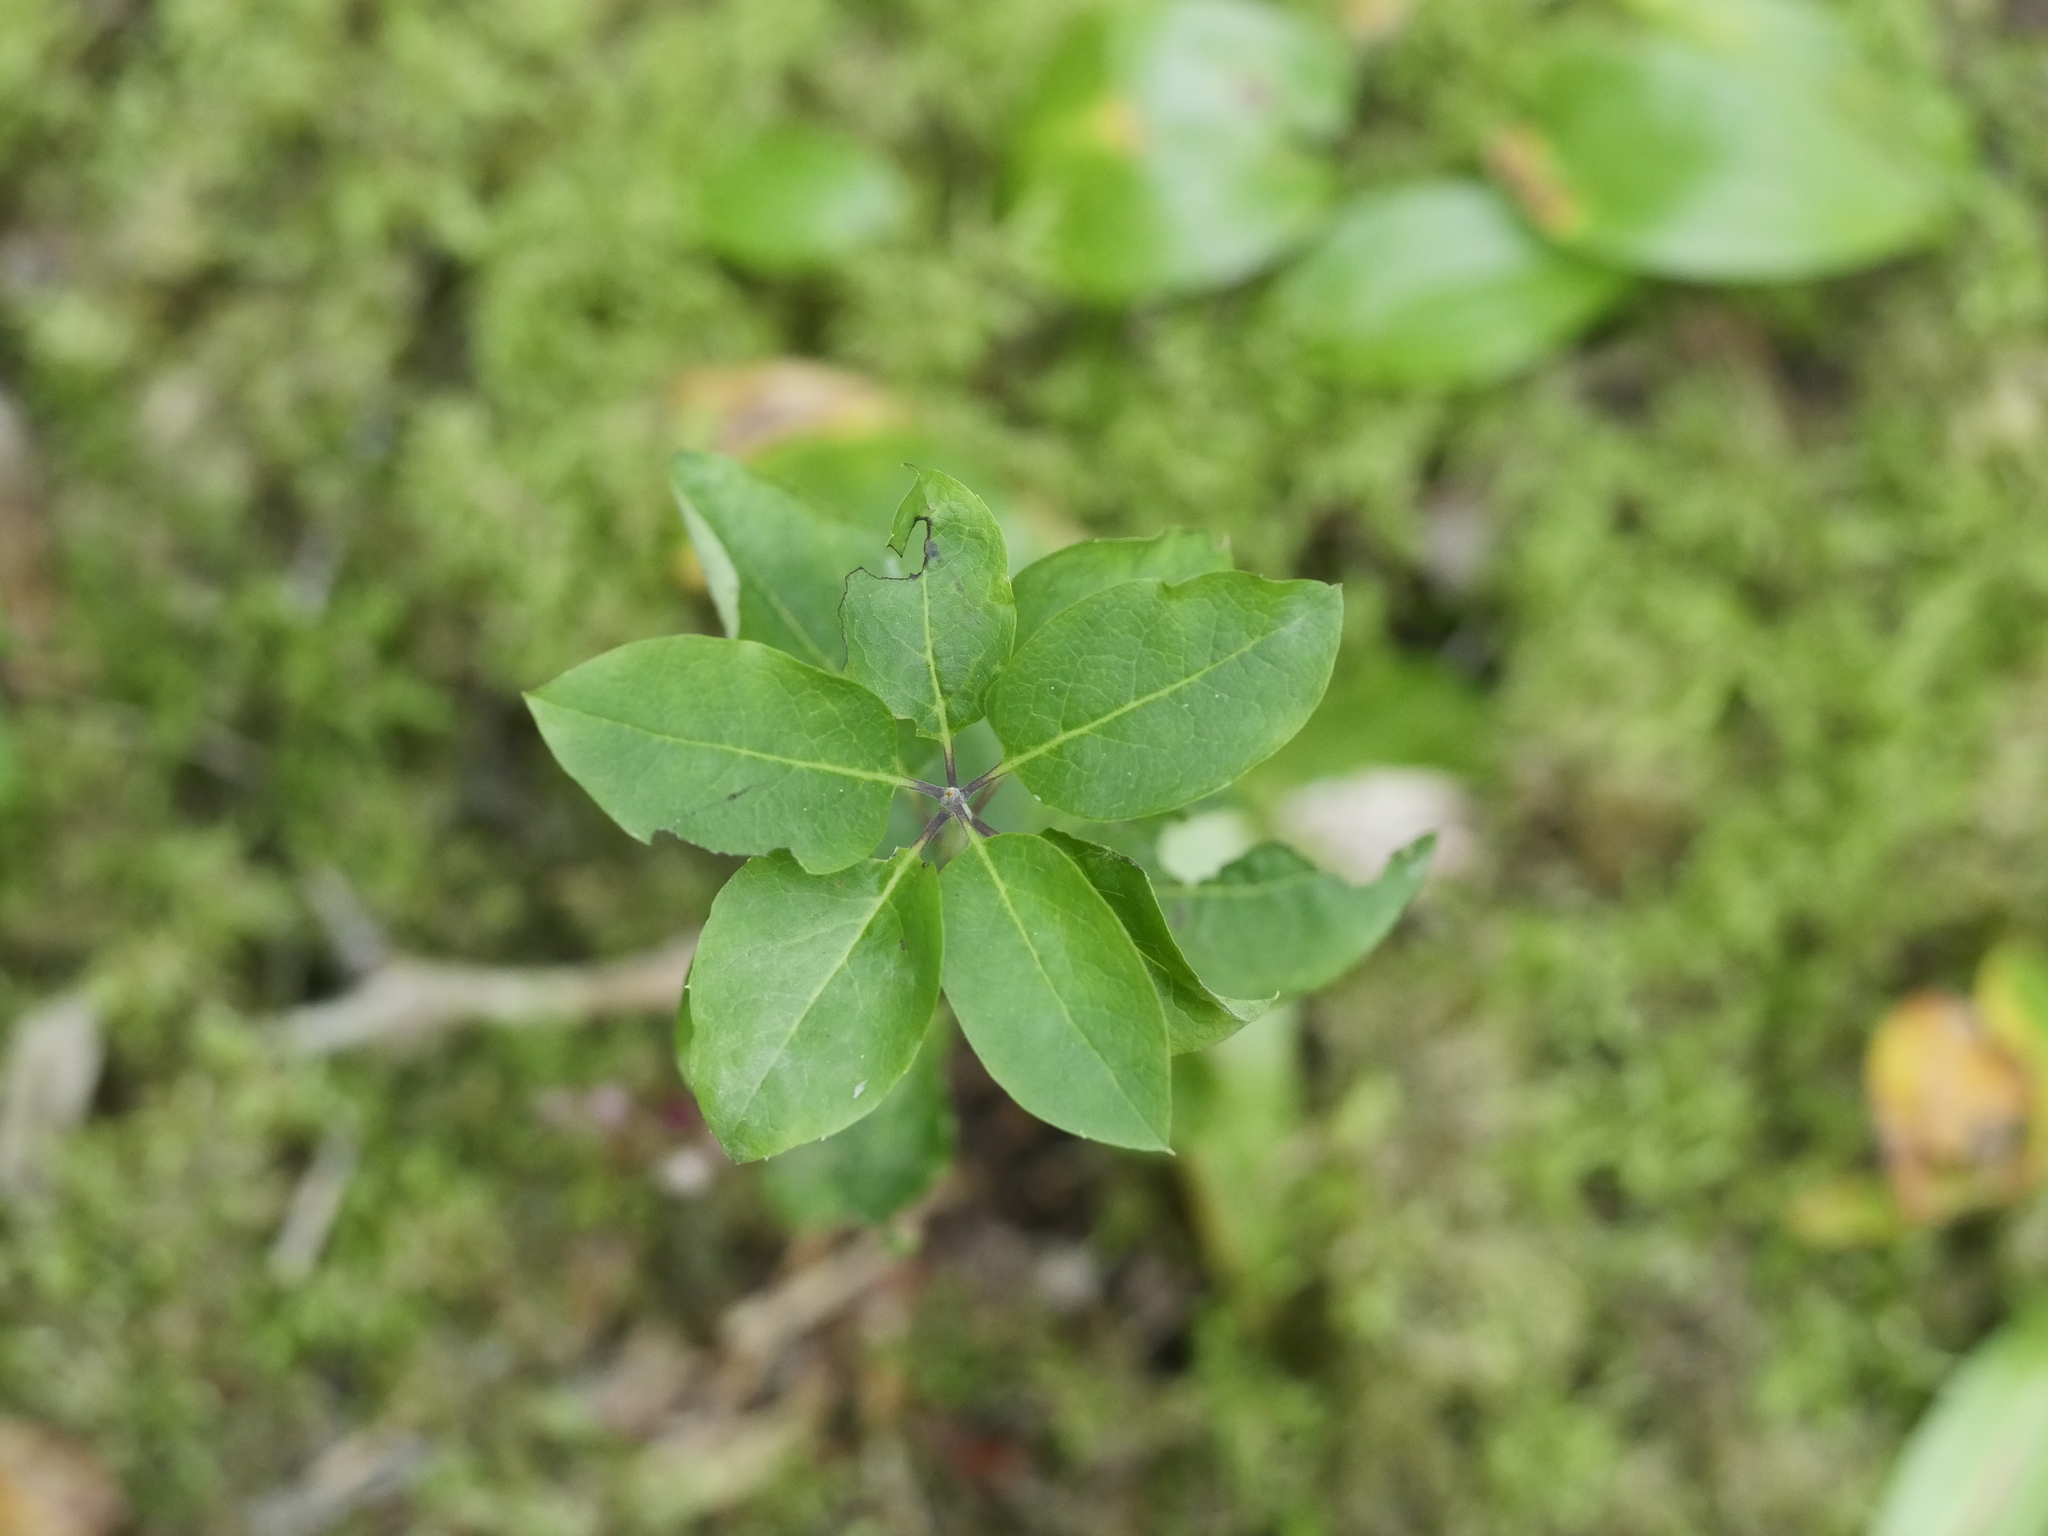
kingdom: Plantae
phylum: Tracheophyta
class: Magnoliopsida
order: Aquifoliales
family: Aquifoliaceae
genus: Ilex
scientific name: Ilex mucronata
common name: Catberry
